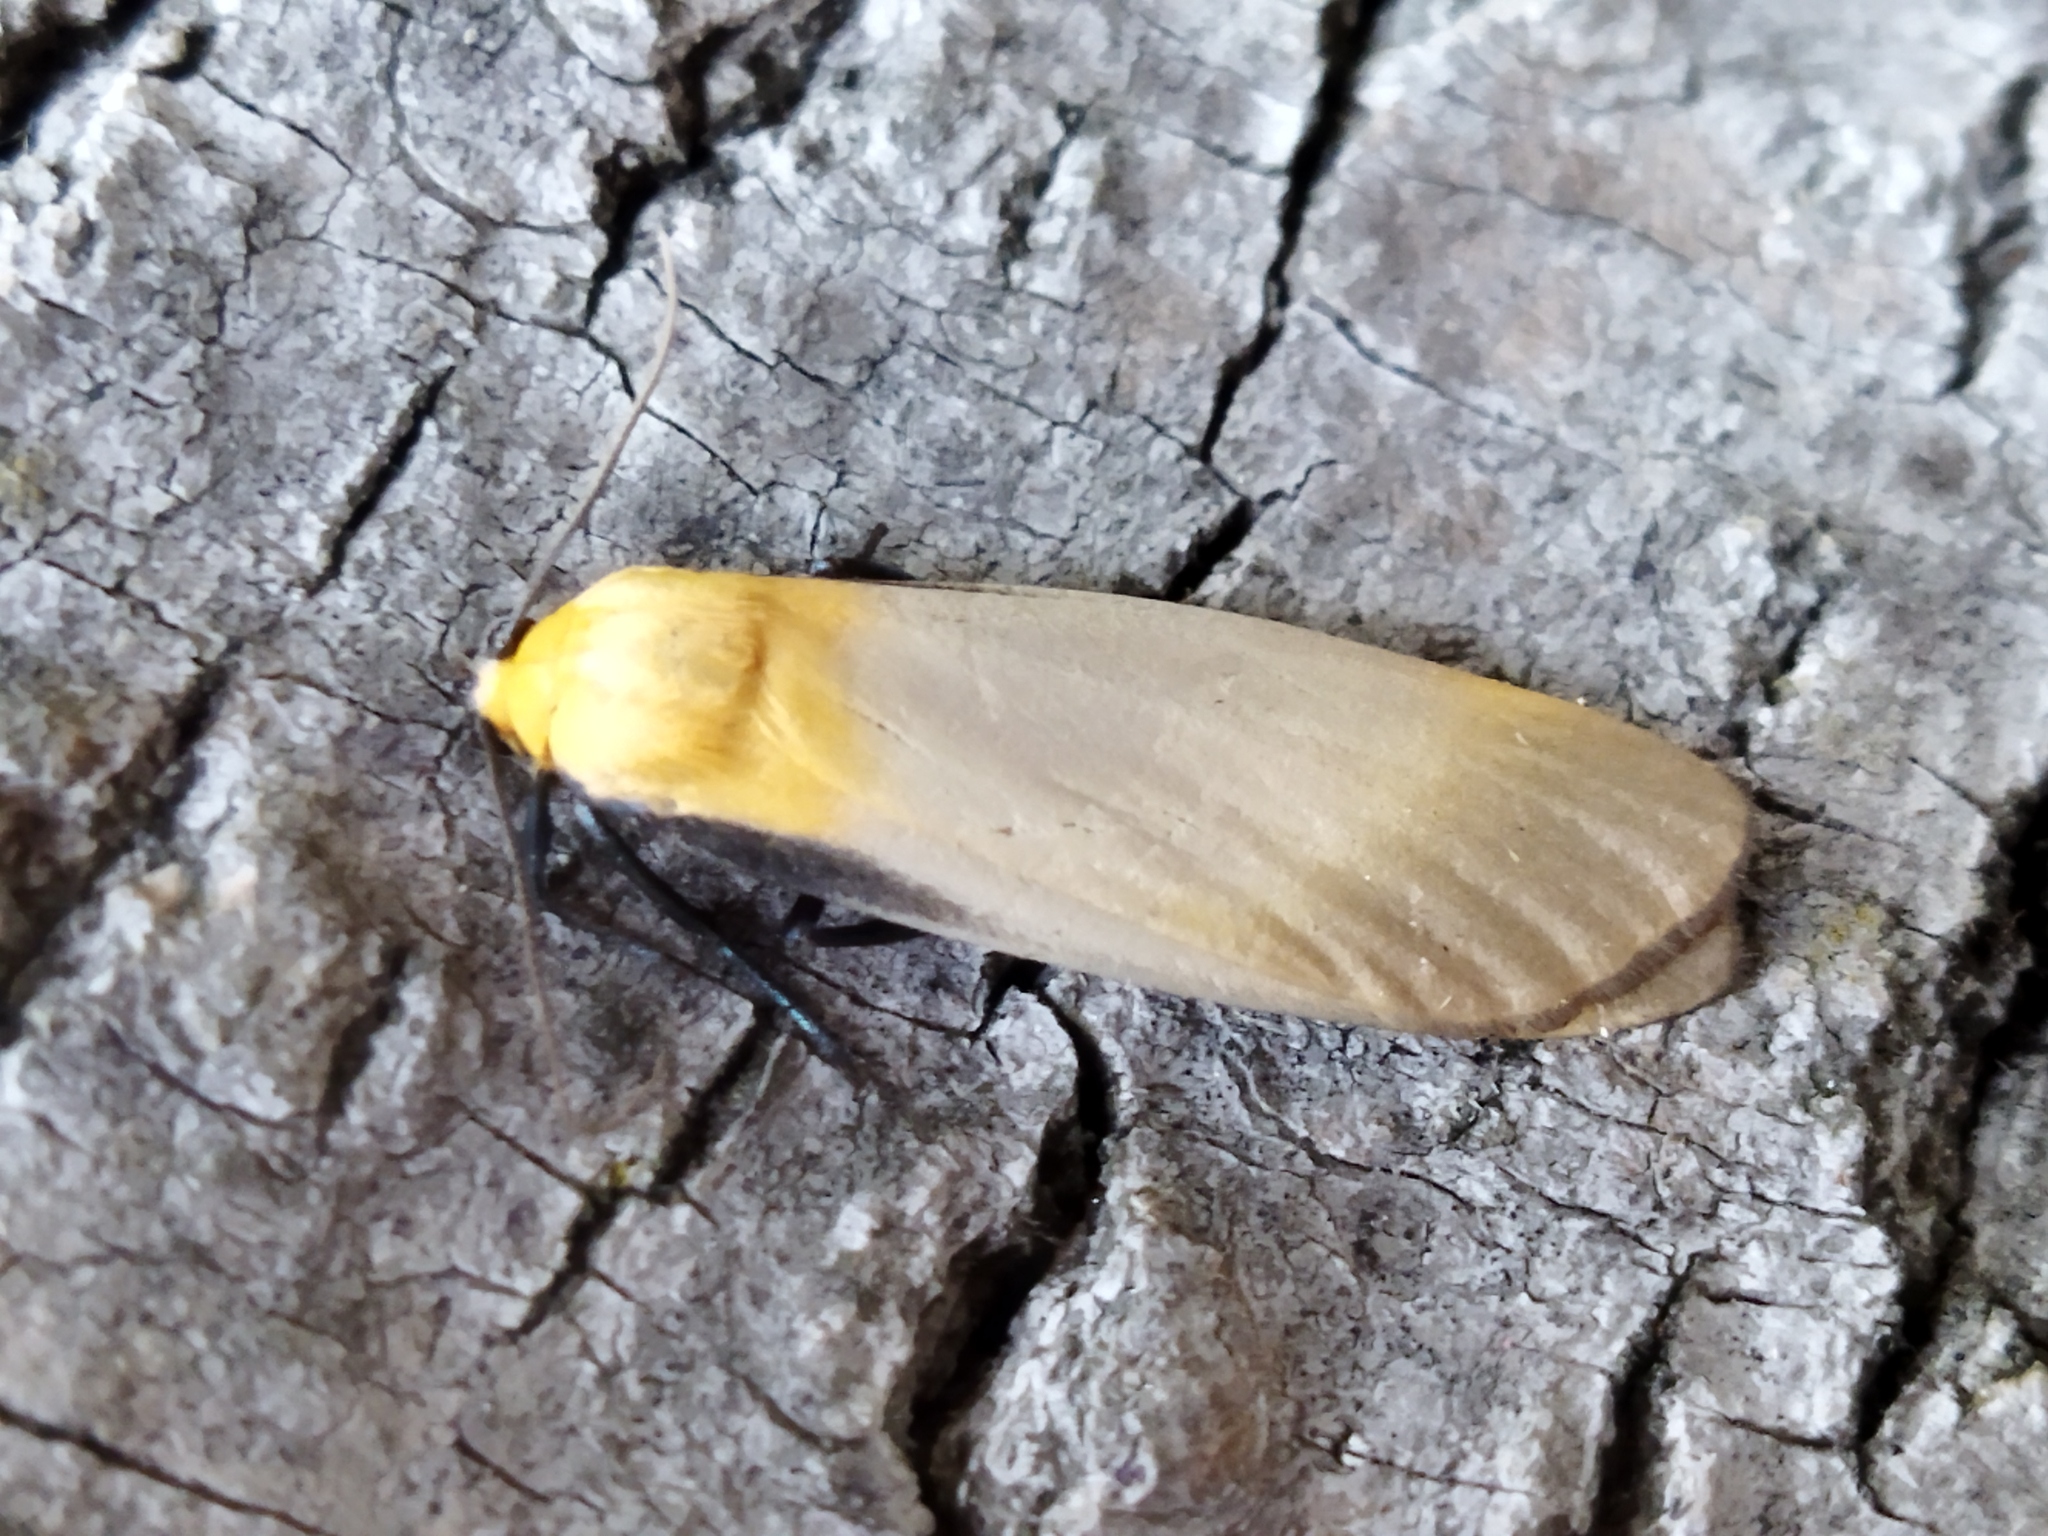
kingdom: Animalia
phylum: Arthropoda
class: Insecta
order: Lepidoptera
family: Erebidae
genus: Lithosia
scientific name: Lithosia quadra
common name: Four-spotted footman
